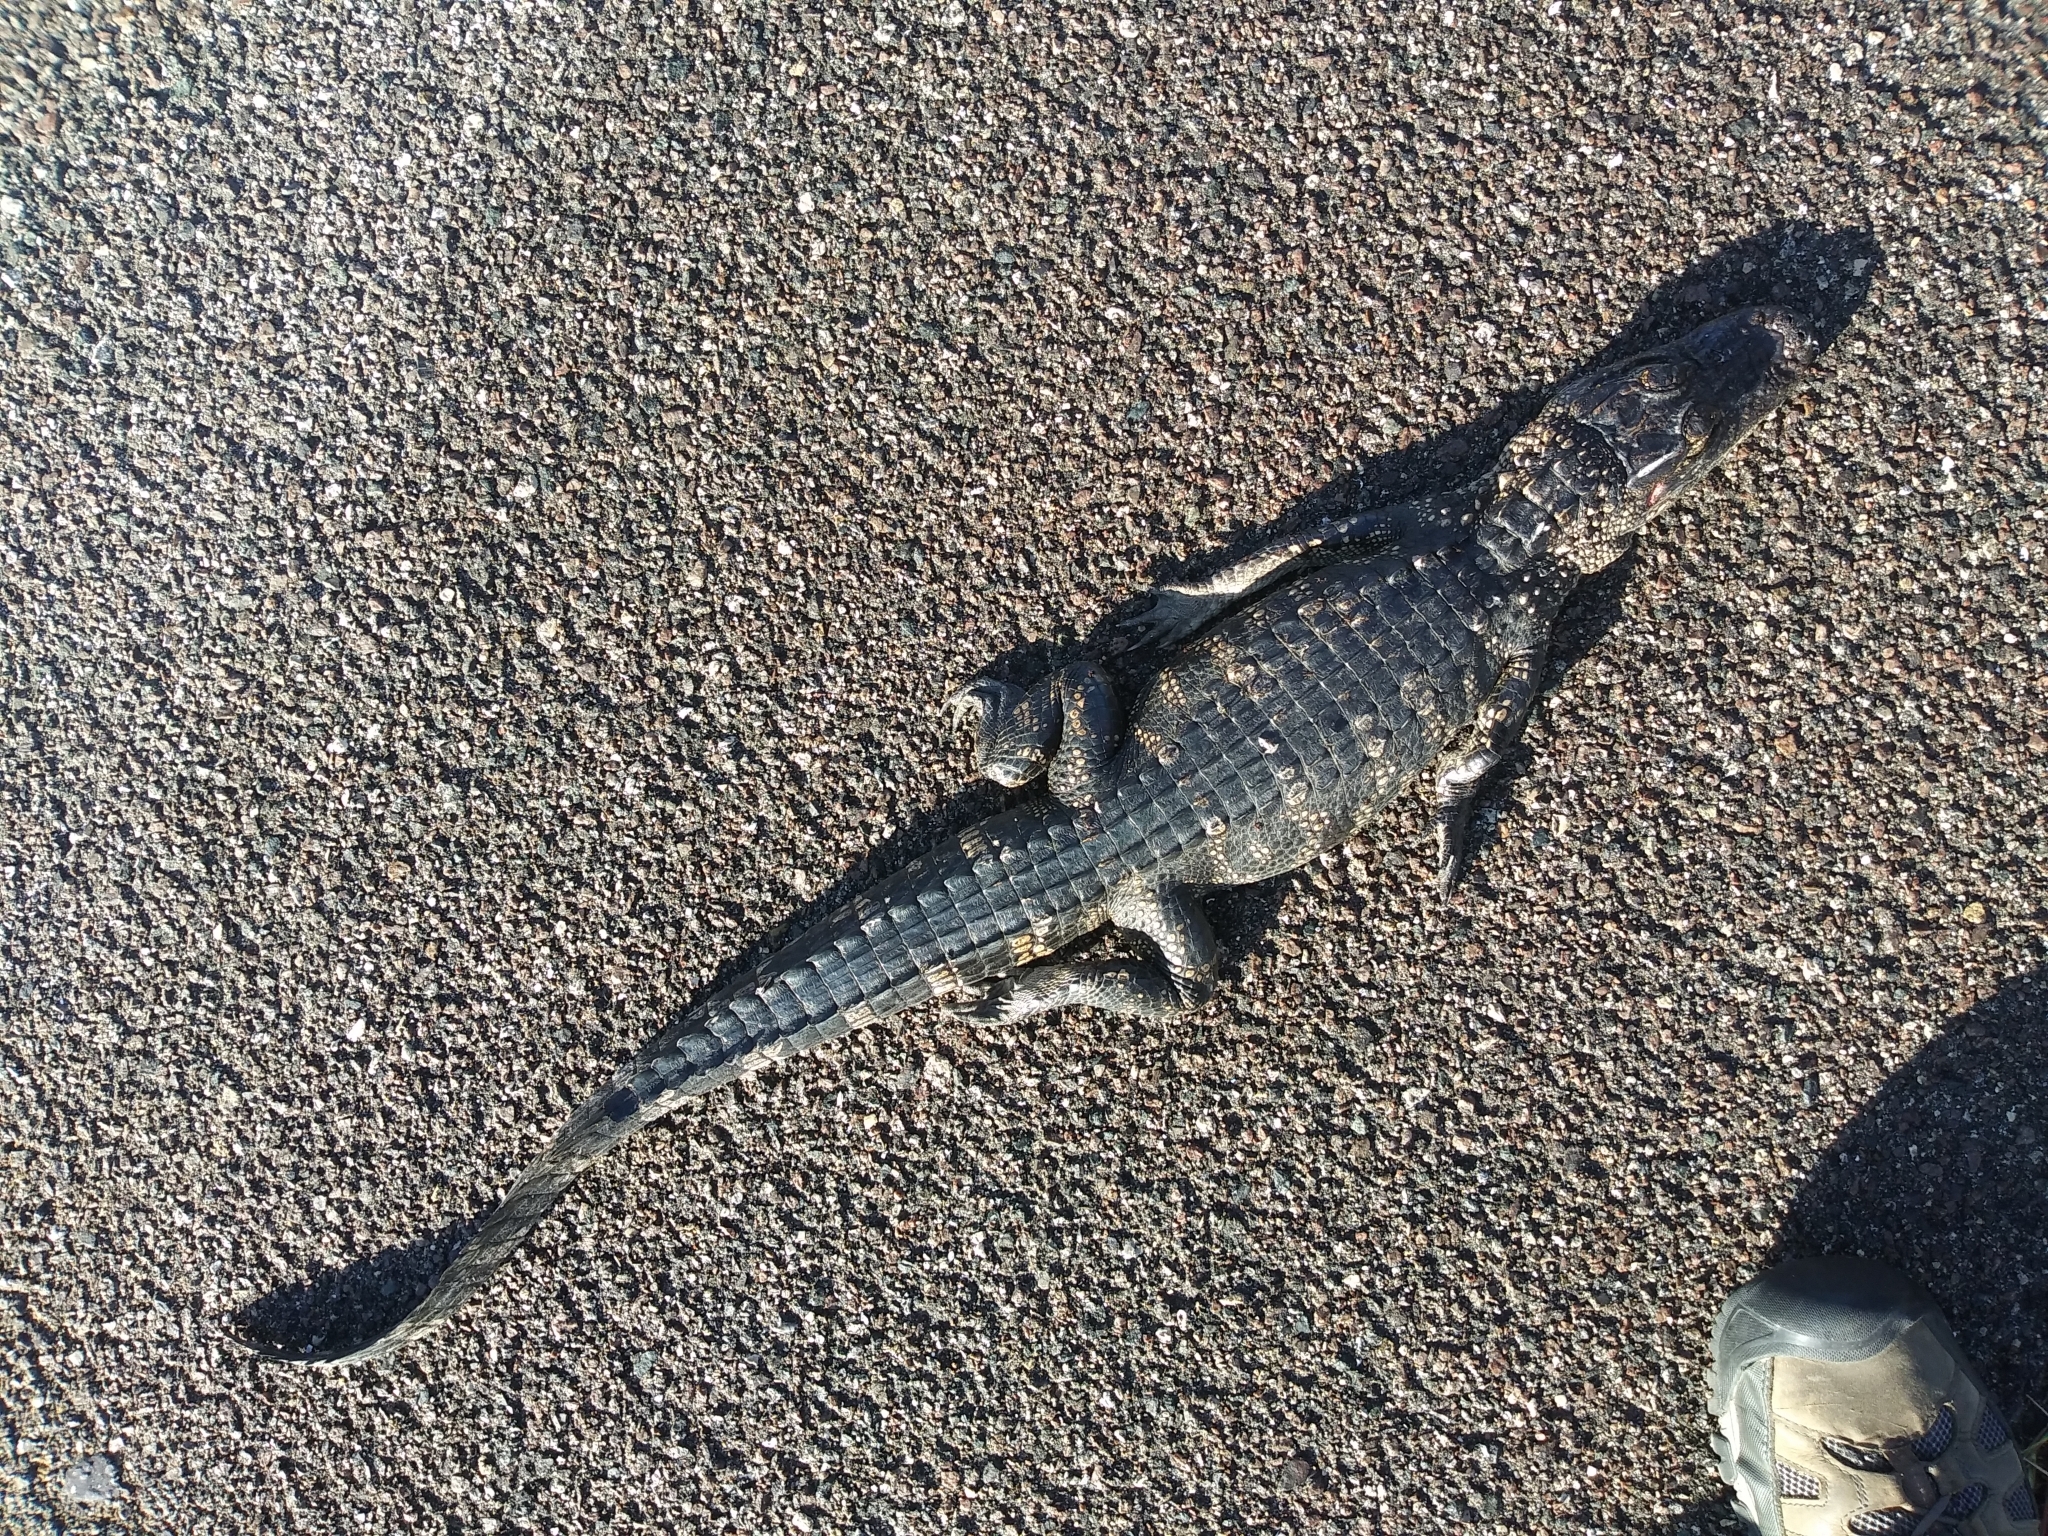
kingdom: Animalia
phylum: Chordata
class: Crocodylia
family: Alligatoridae
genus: Alligator
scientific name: Alligator mississippiensis
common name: American alligator
